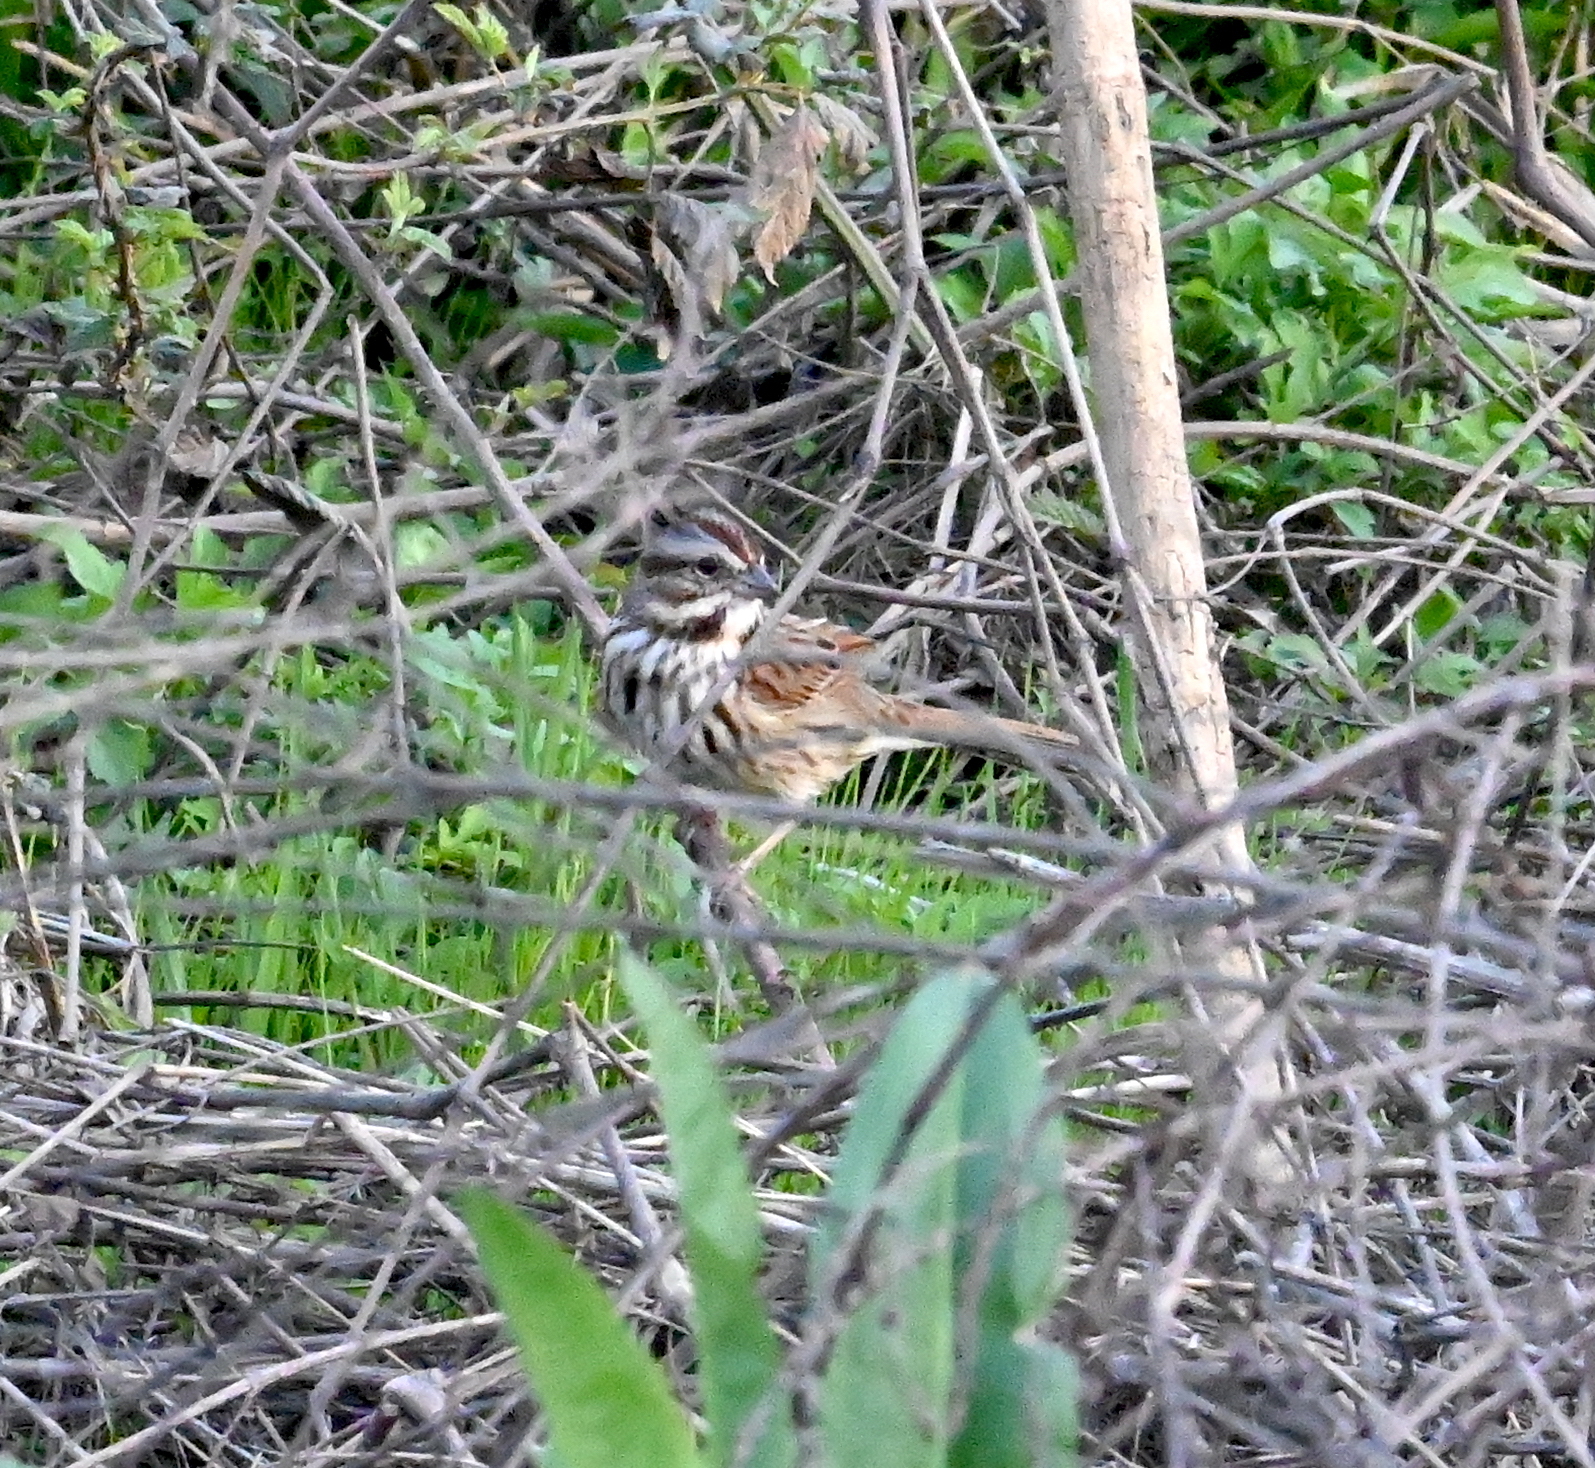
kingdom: Animalia
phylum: Chordata
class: Aves
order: Passeriformes
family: Passerellidae
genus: Melospiza
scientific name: Melospiza melodia
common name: Song sparrow
